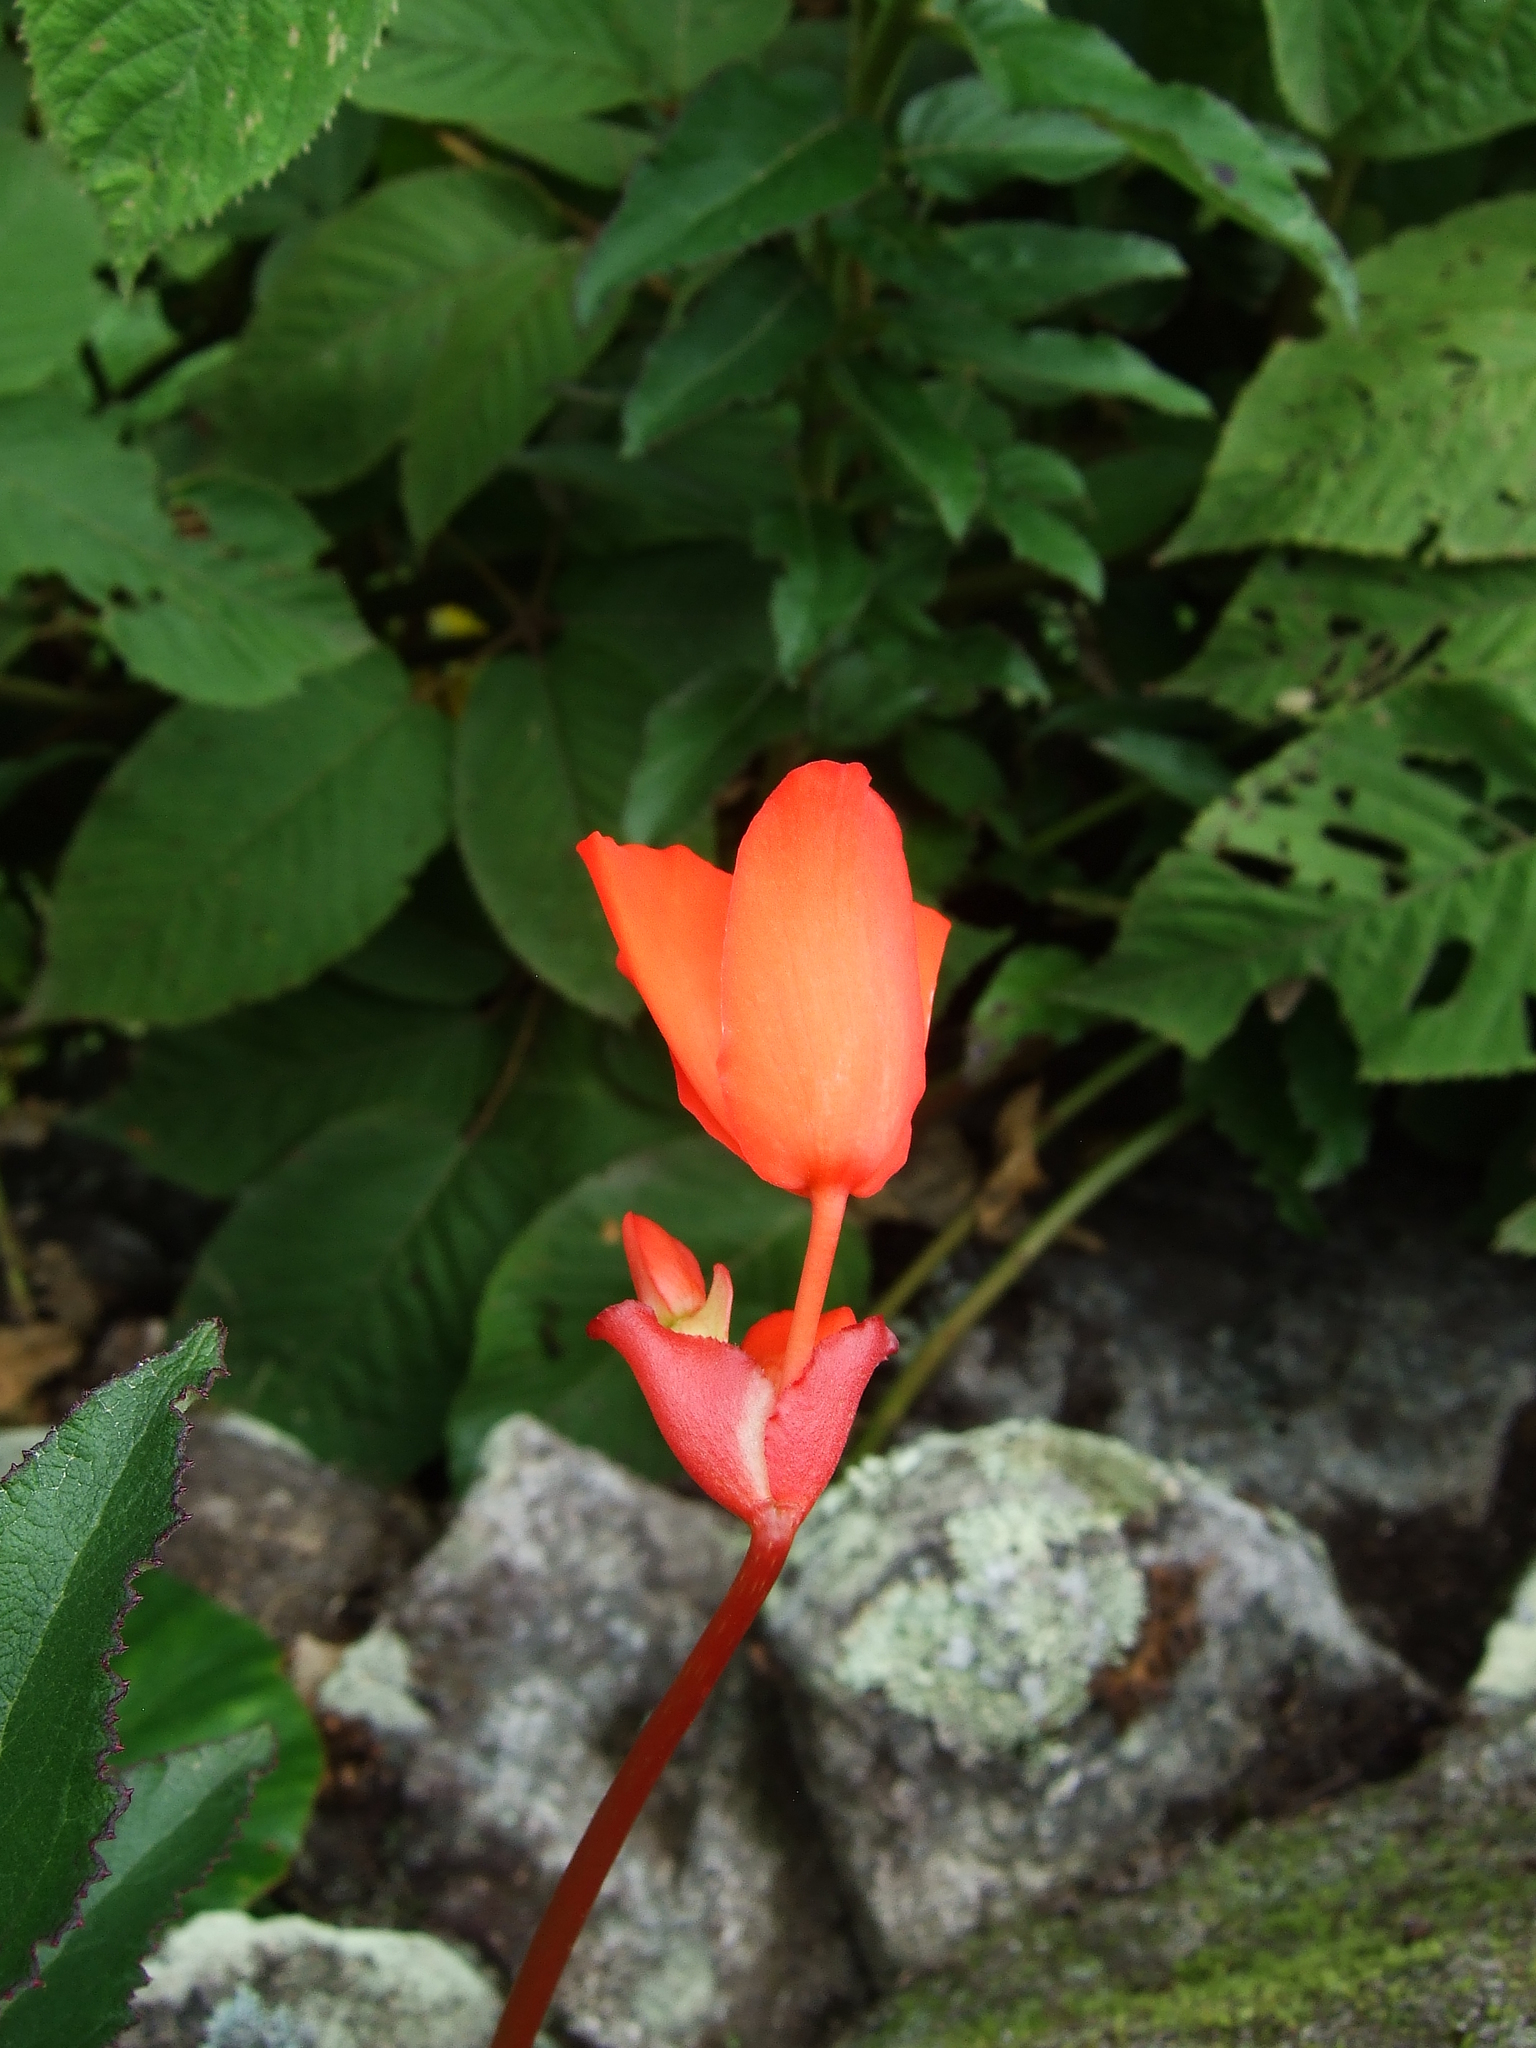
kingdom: Plantae
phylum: Tracheophyta
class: Magnoliopsida
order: Cucurbitales
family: Begoniaceae
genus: Begonia
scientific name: Begonia veitchii
